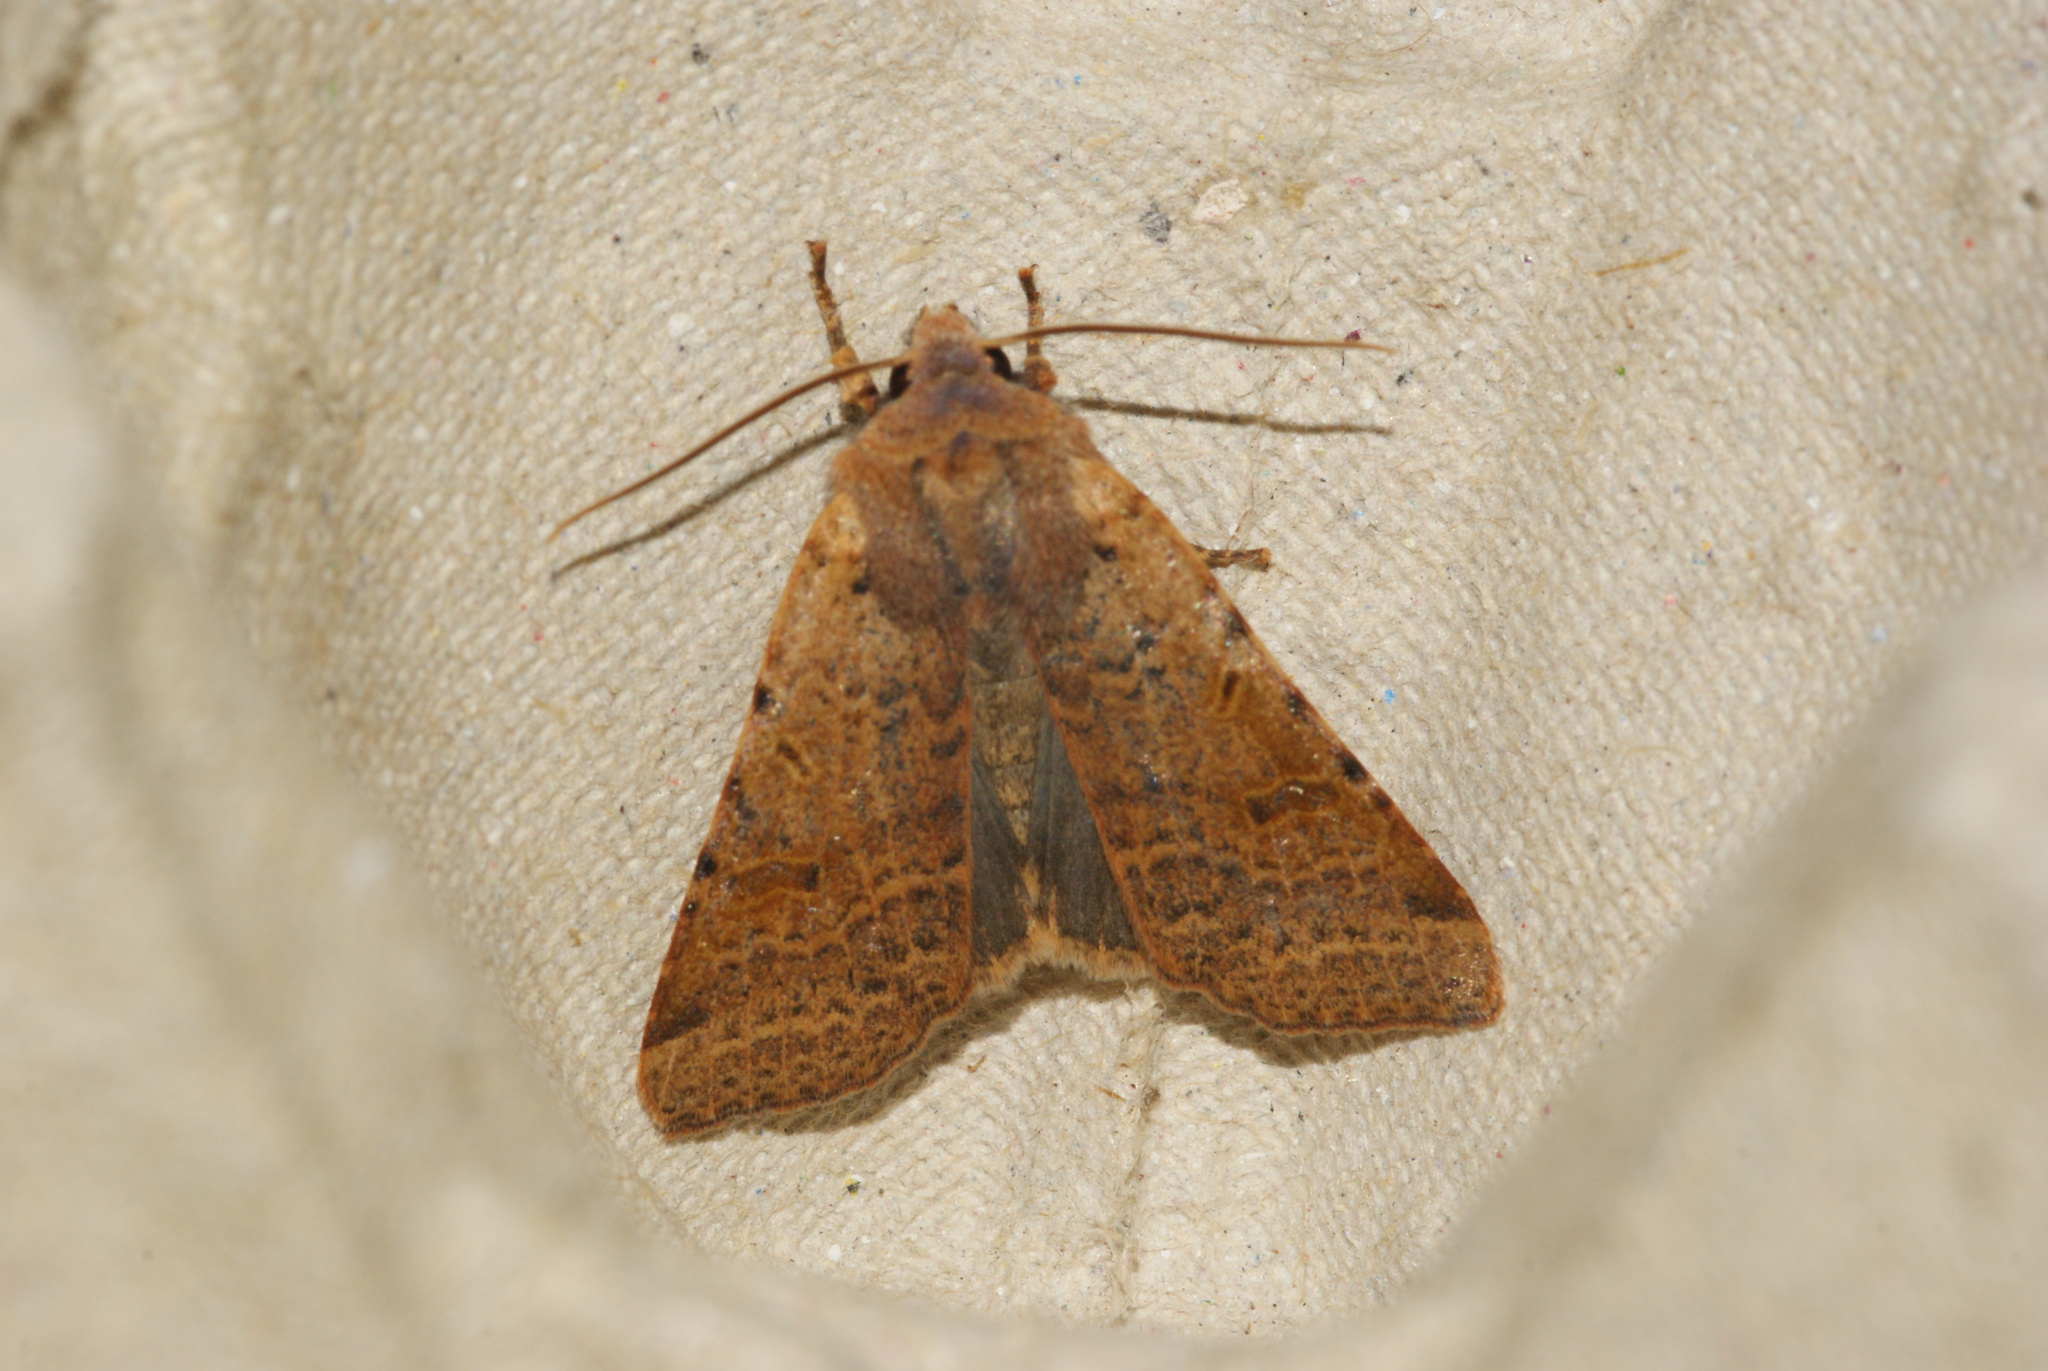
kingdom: Animalia
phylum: Arthropoda
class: Insecta
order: Lepidoptera
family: Noctuidae
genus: Agrochola
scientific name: Agrochola lychnidis
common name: Beaded chestnut
